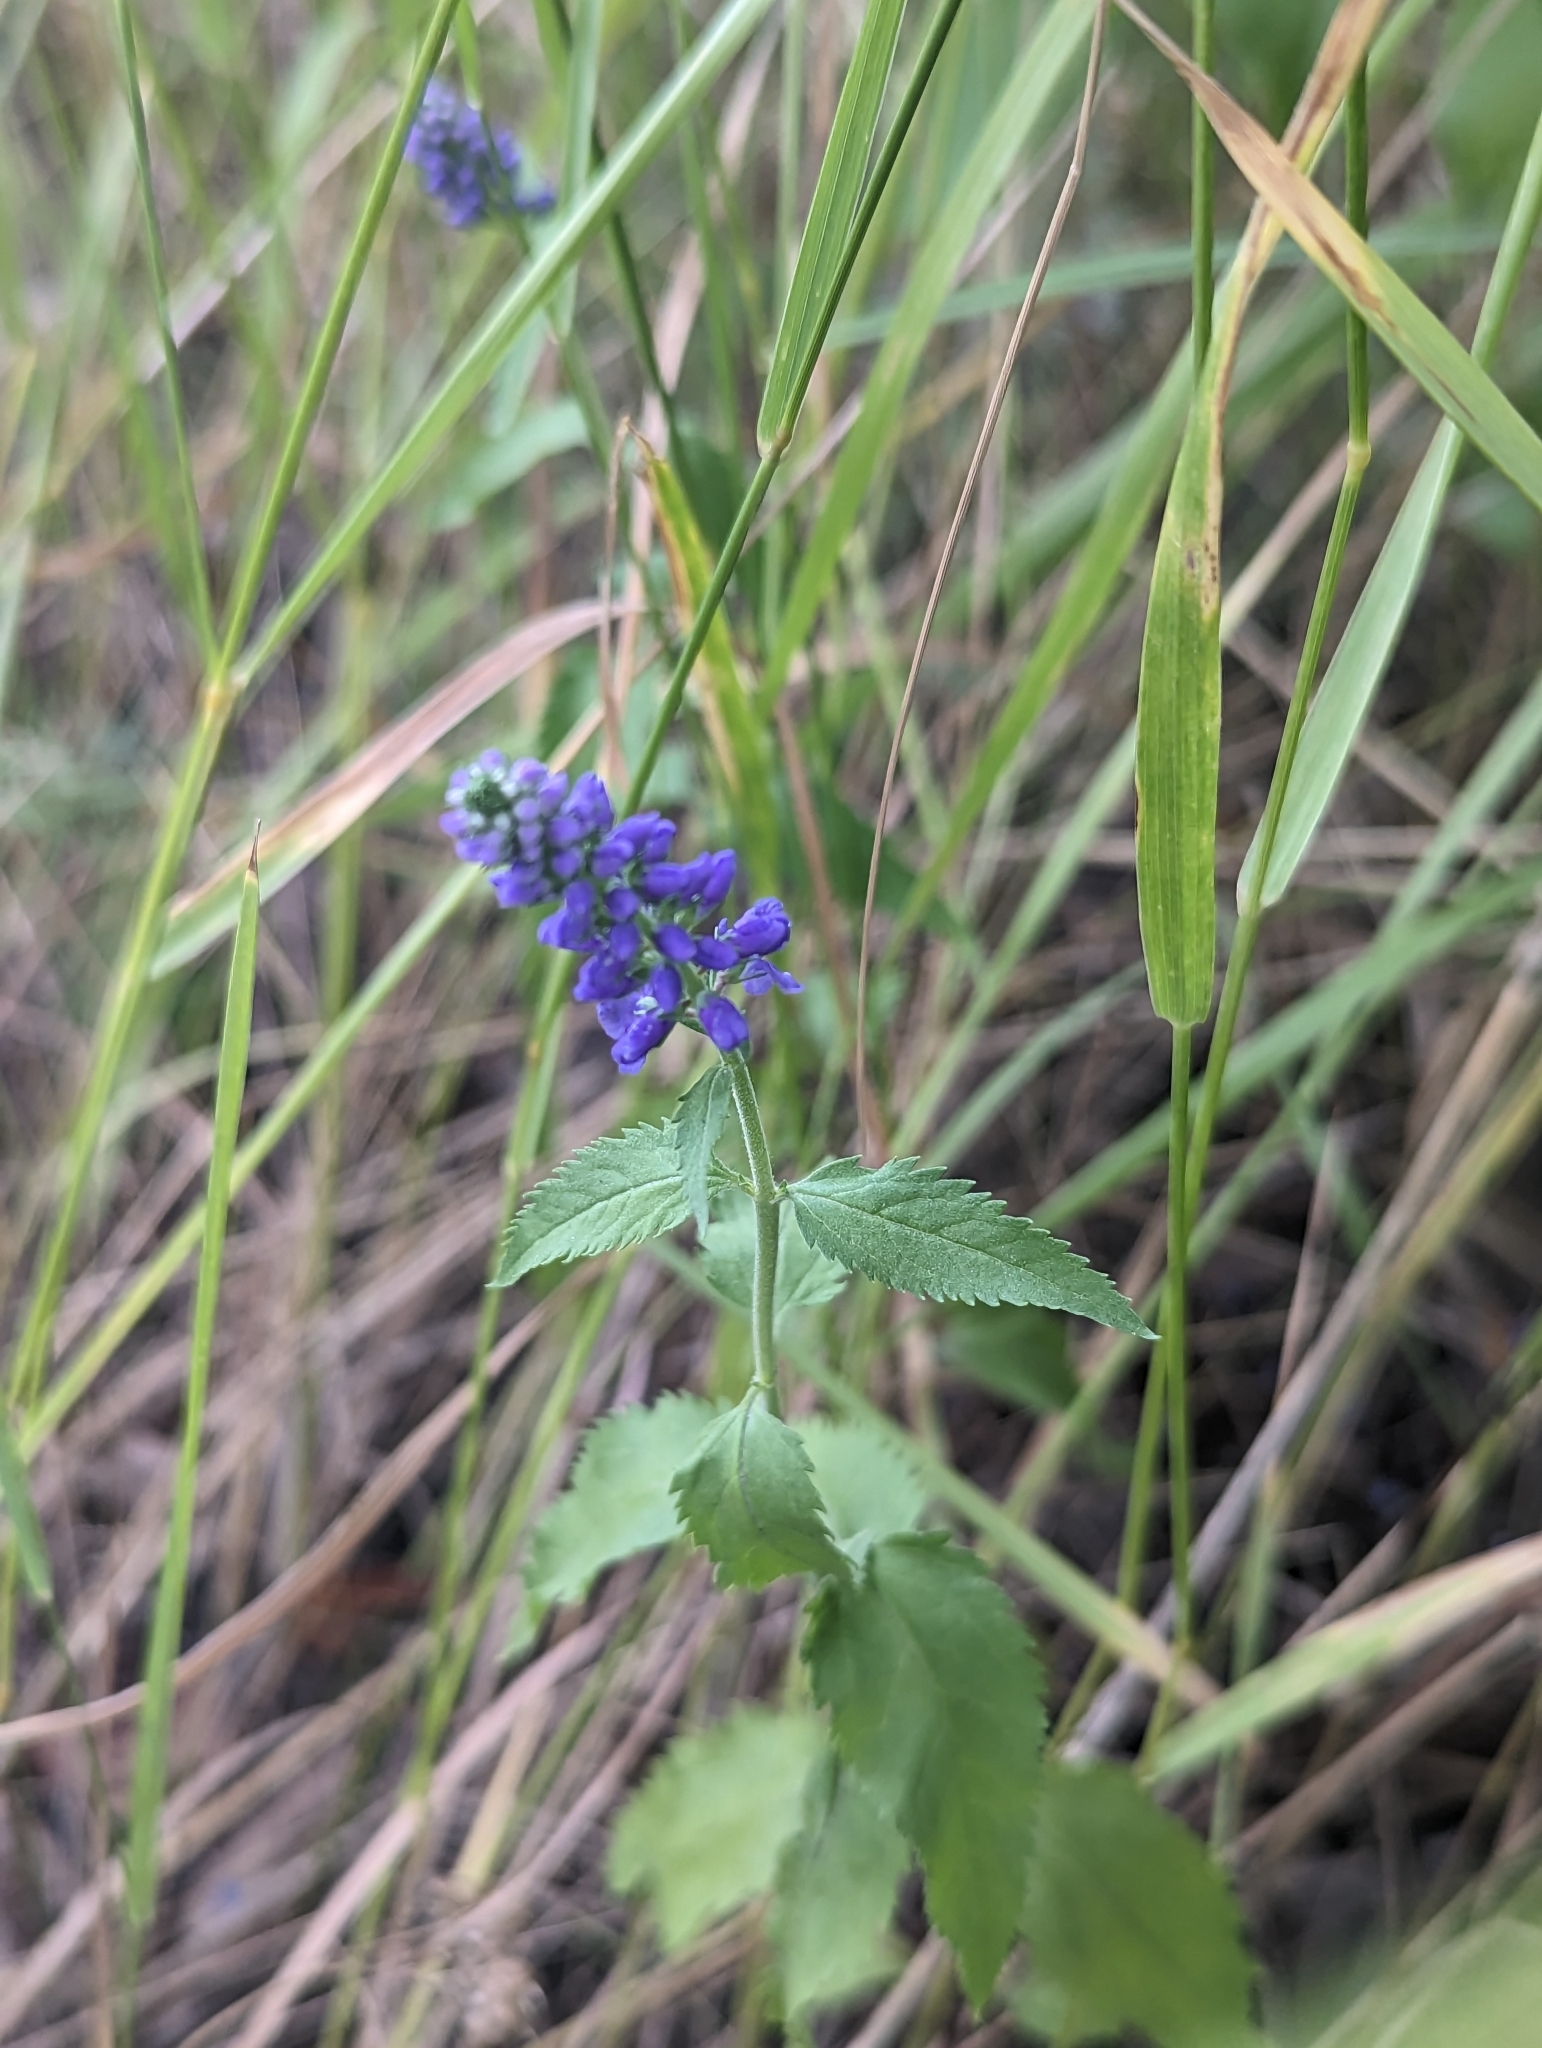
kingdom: Plantae
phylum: Tracheophyta
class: Magnoliopsida
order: Lamiales
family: Plantaginaceae
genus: Veronica
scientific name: Veronica longifolia
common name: Garden speedwell
